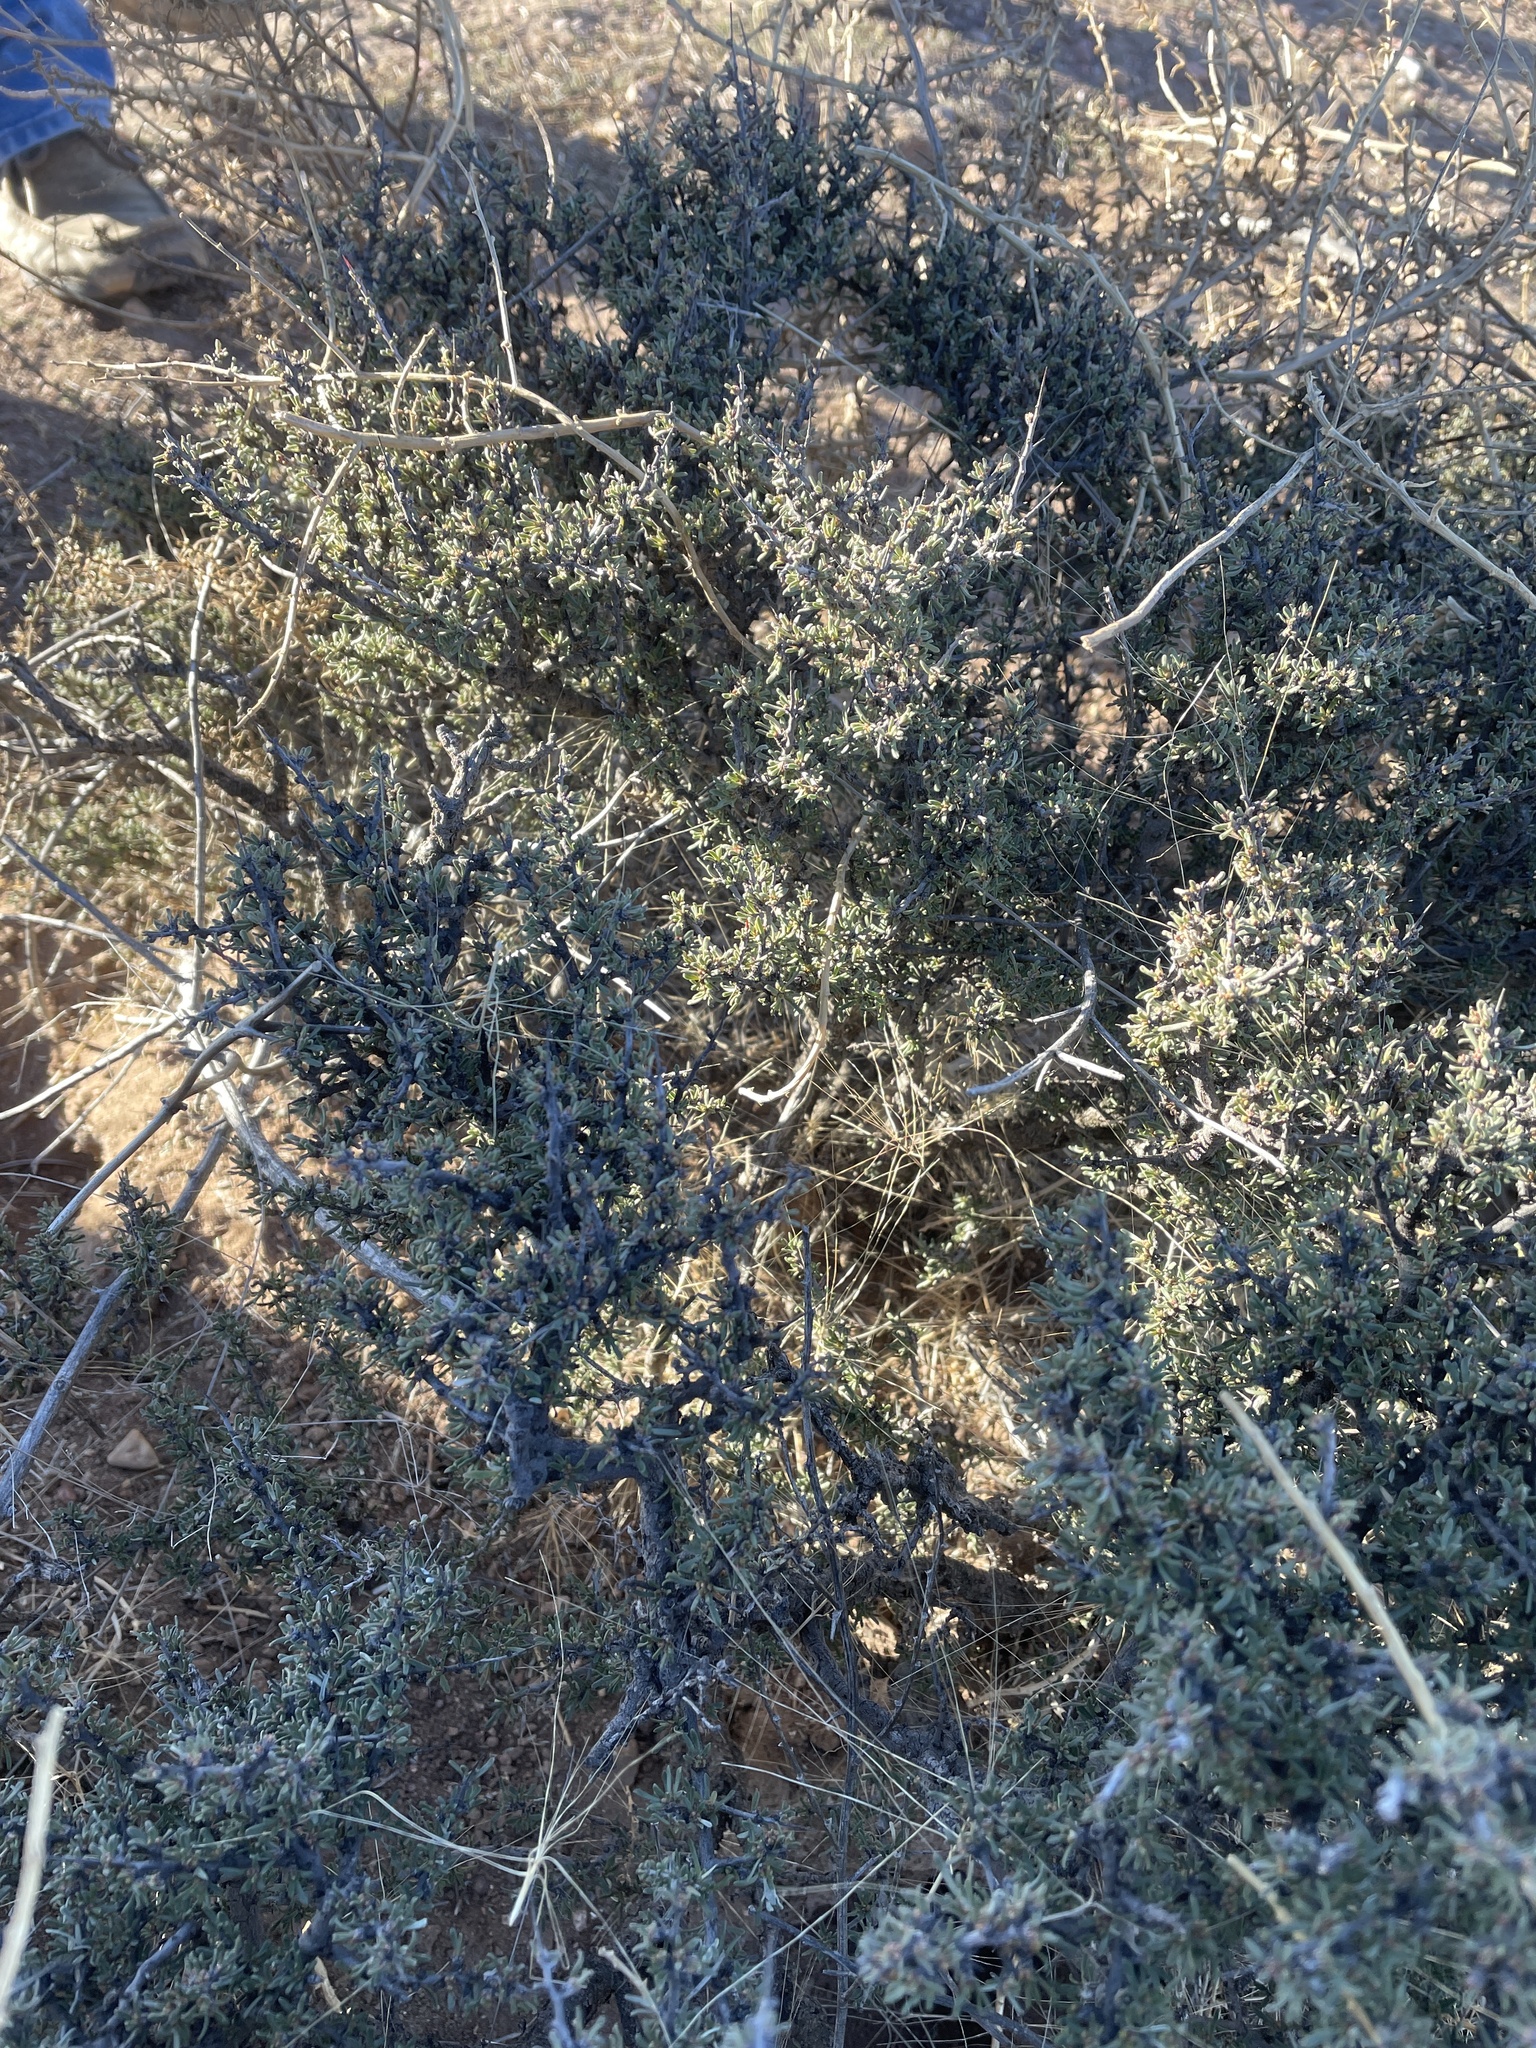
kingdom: Plantae
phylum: Tracheophyta
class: Magnoliopsida
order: Rosales
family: Rhamnaceae
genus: Condalia
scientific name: Condalia ericoides
